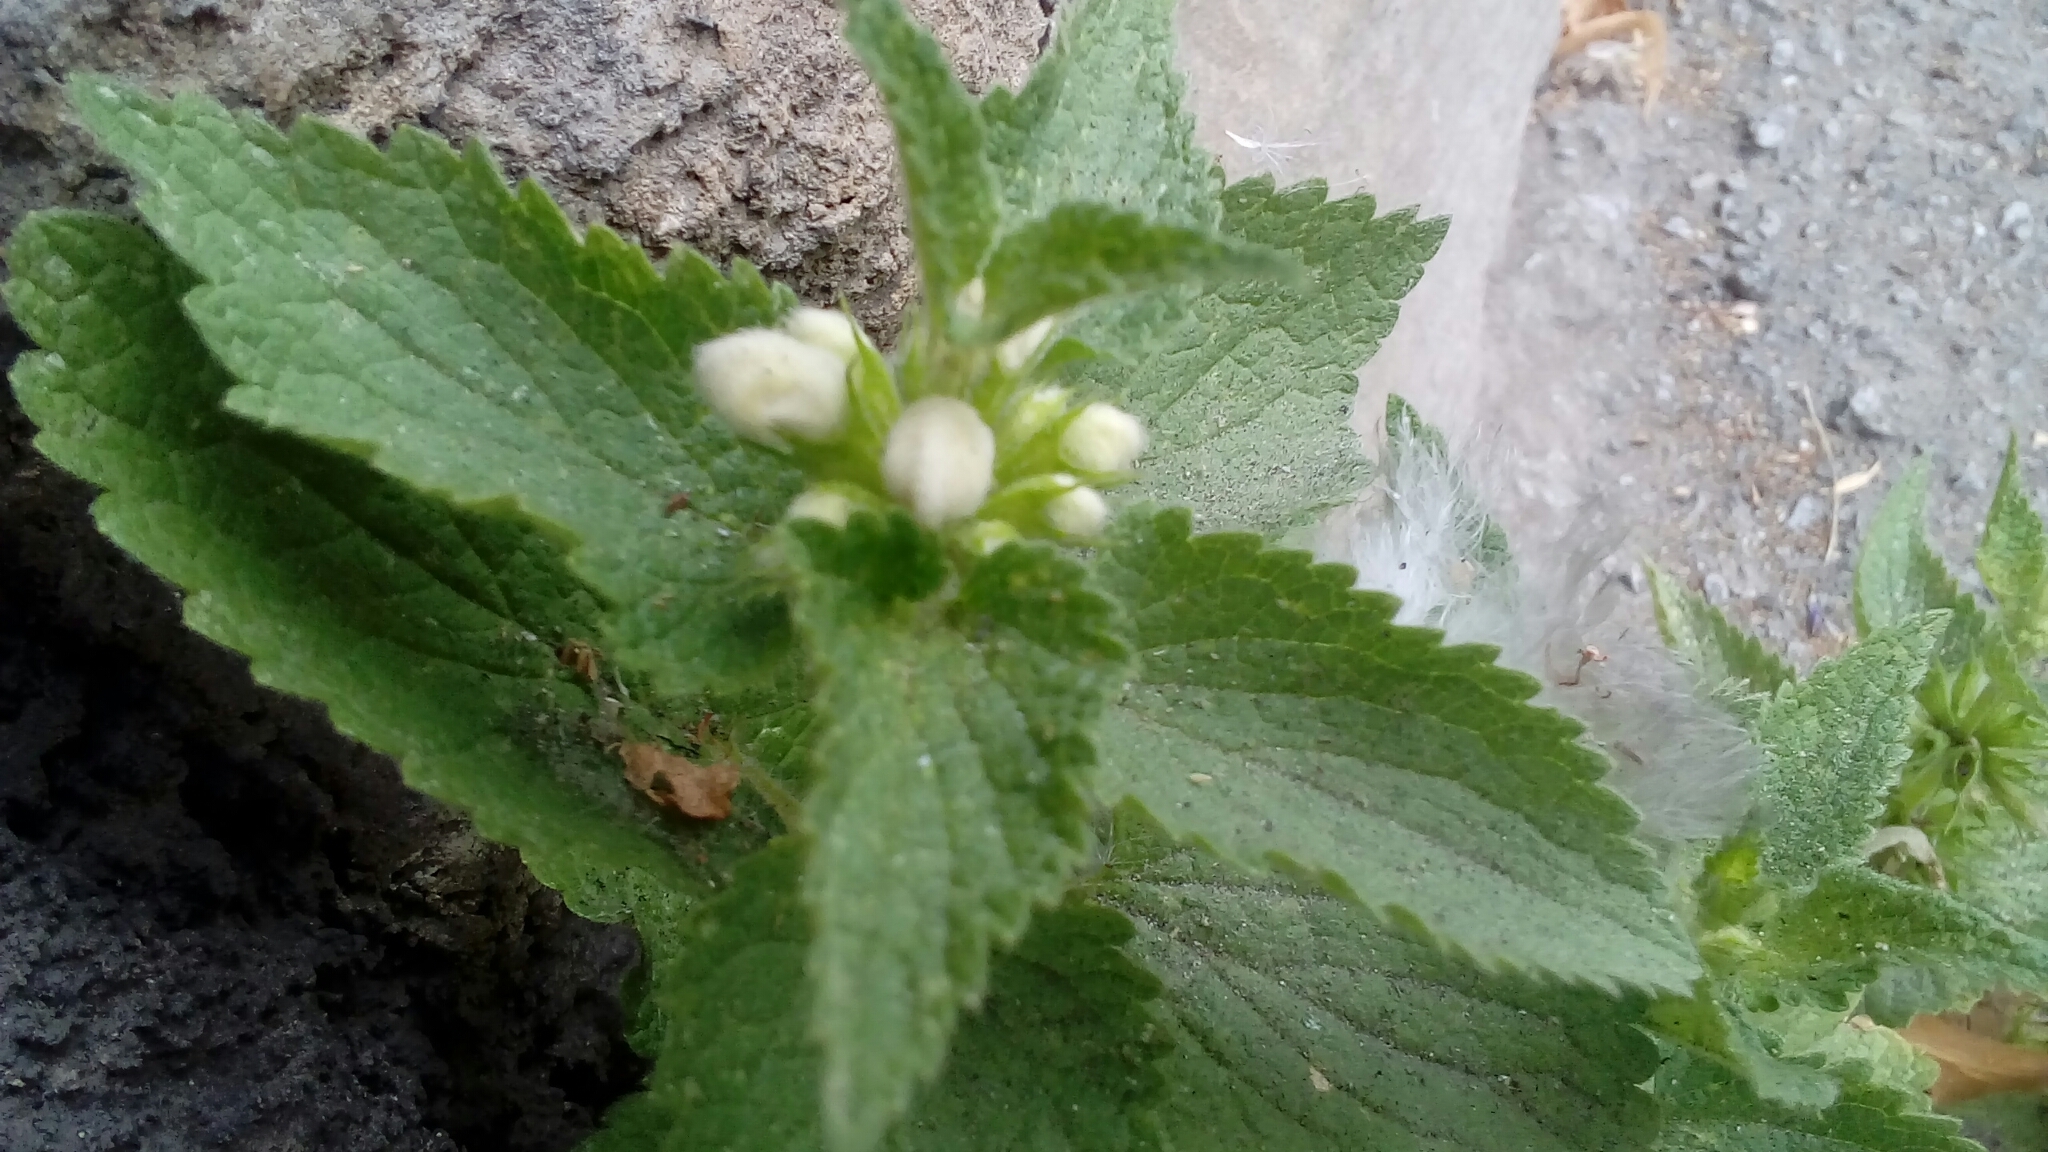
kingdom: Plantae
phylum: Tracheophyta
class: Magnoliopsida
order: Lamiales
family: Lamiaceae
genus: Lamium
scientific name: Lamium album
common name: White dead-nettle
